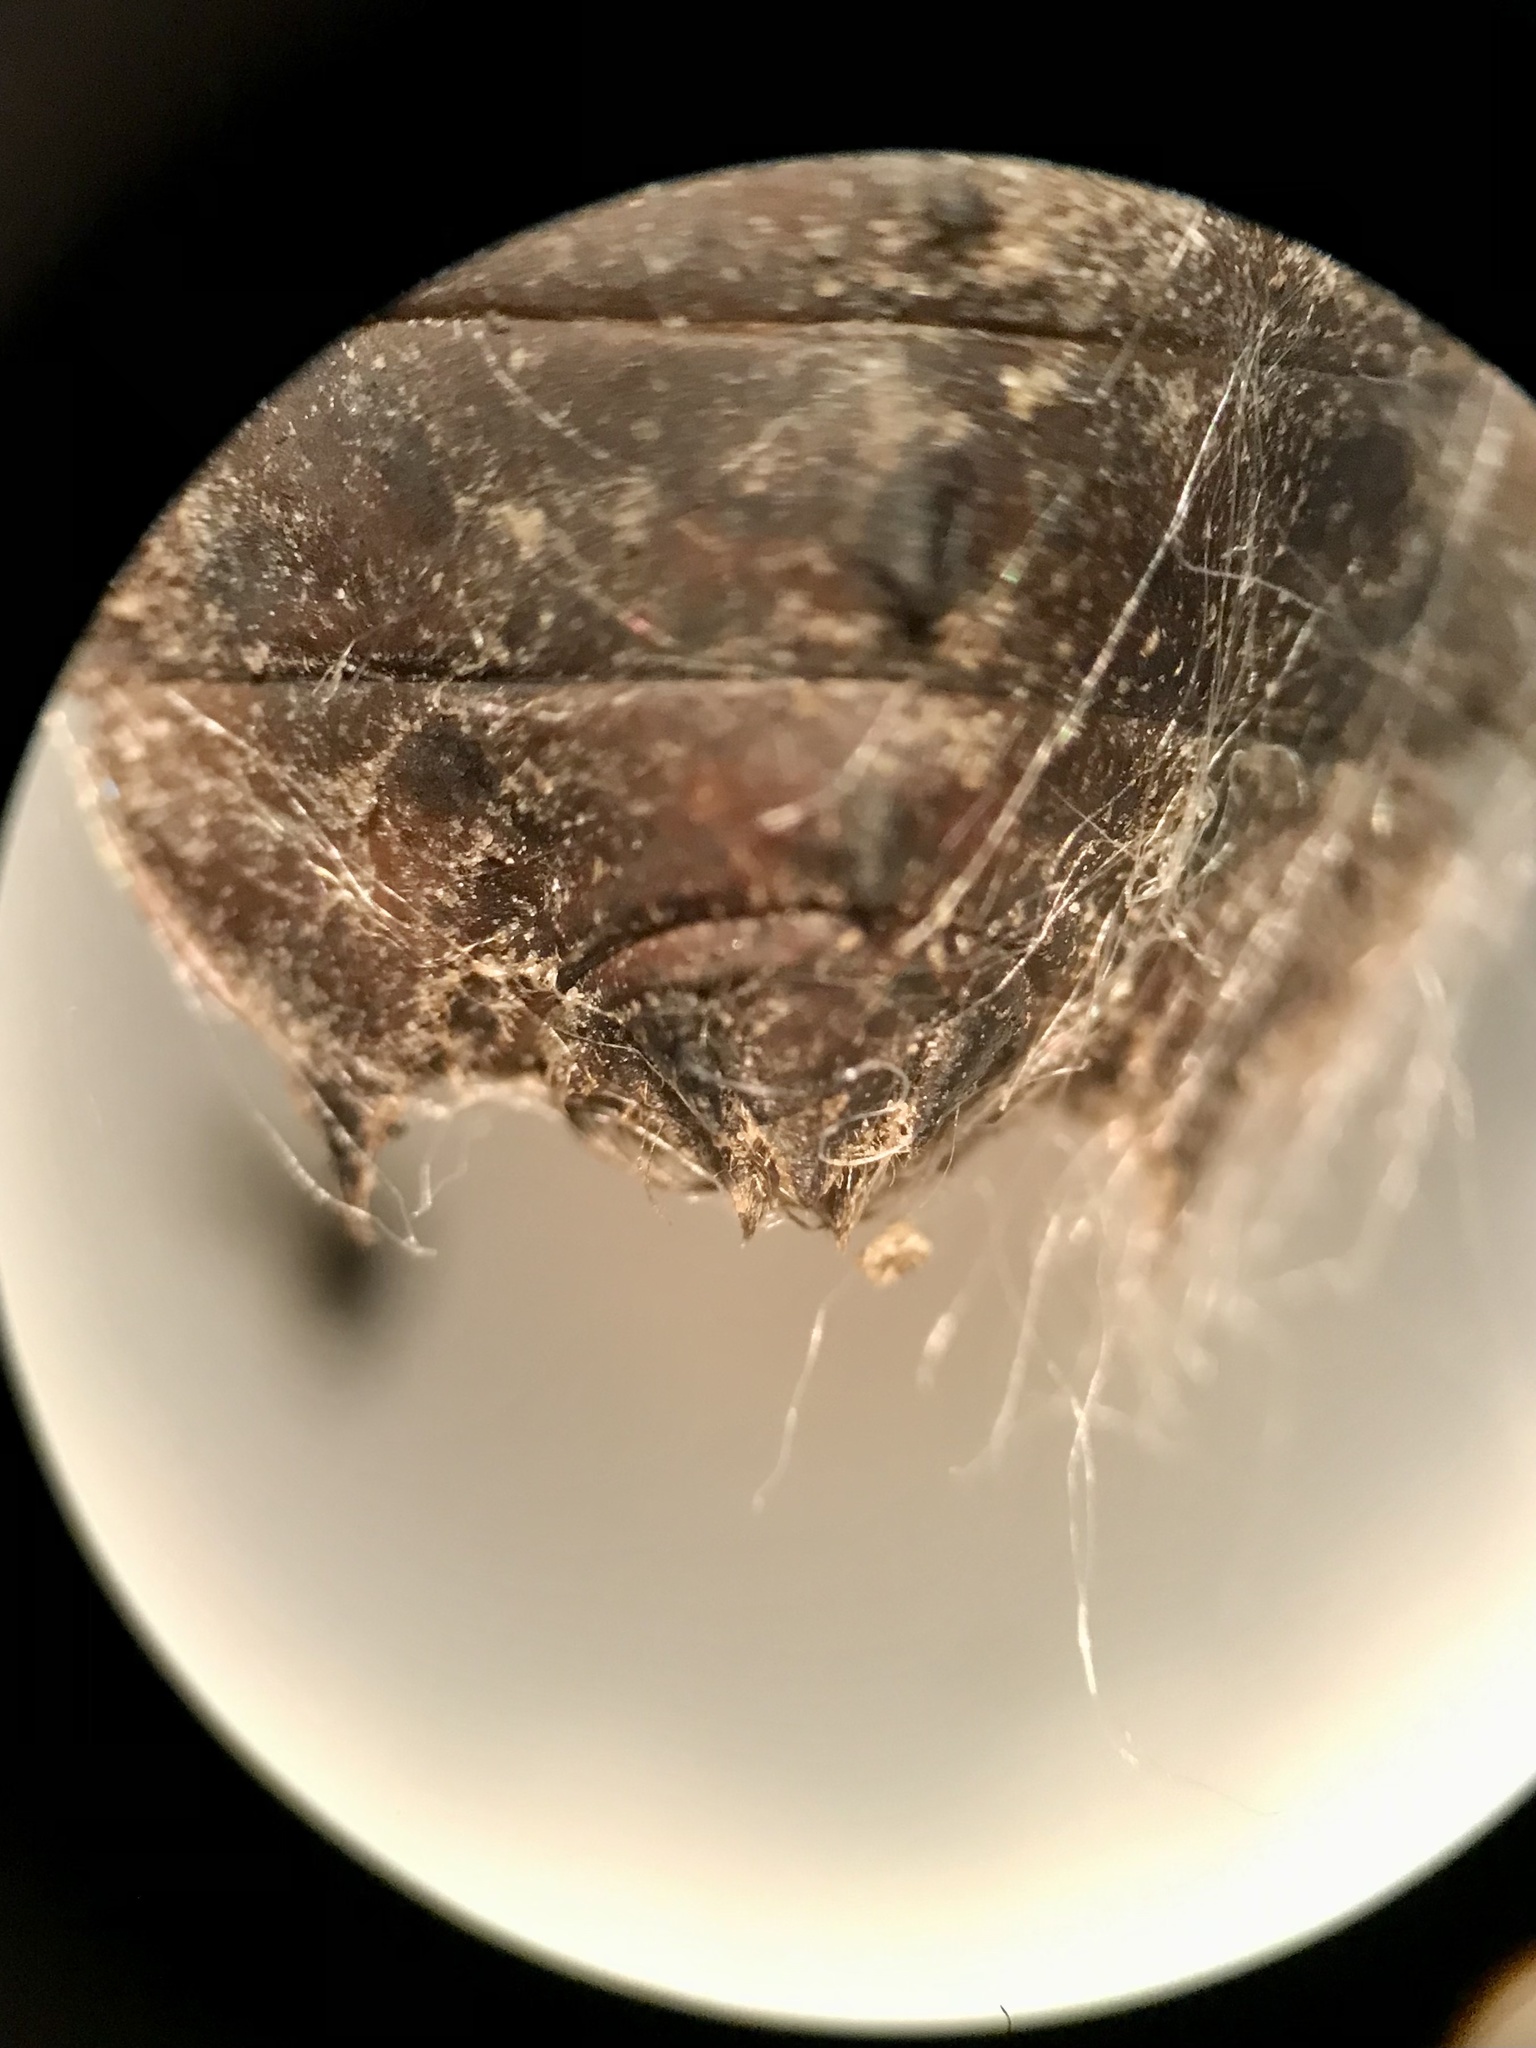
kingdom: Animalia
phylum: Arthropoda
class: Insecta
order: Odonata
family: Corduliidae
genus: Neurocordulia
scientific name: Neurocordulia yamaskanensis
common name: Stygian shadowdragon
